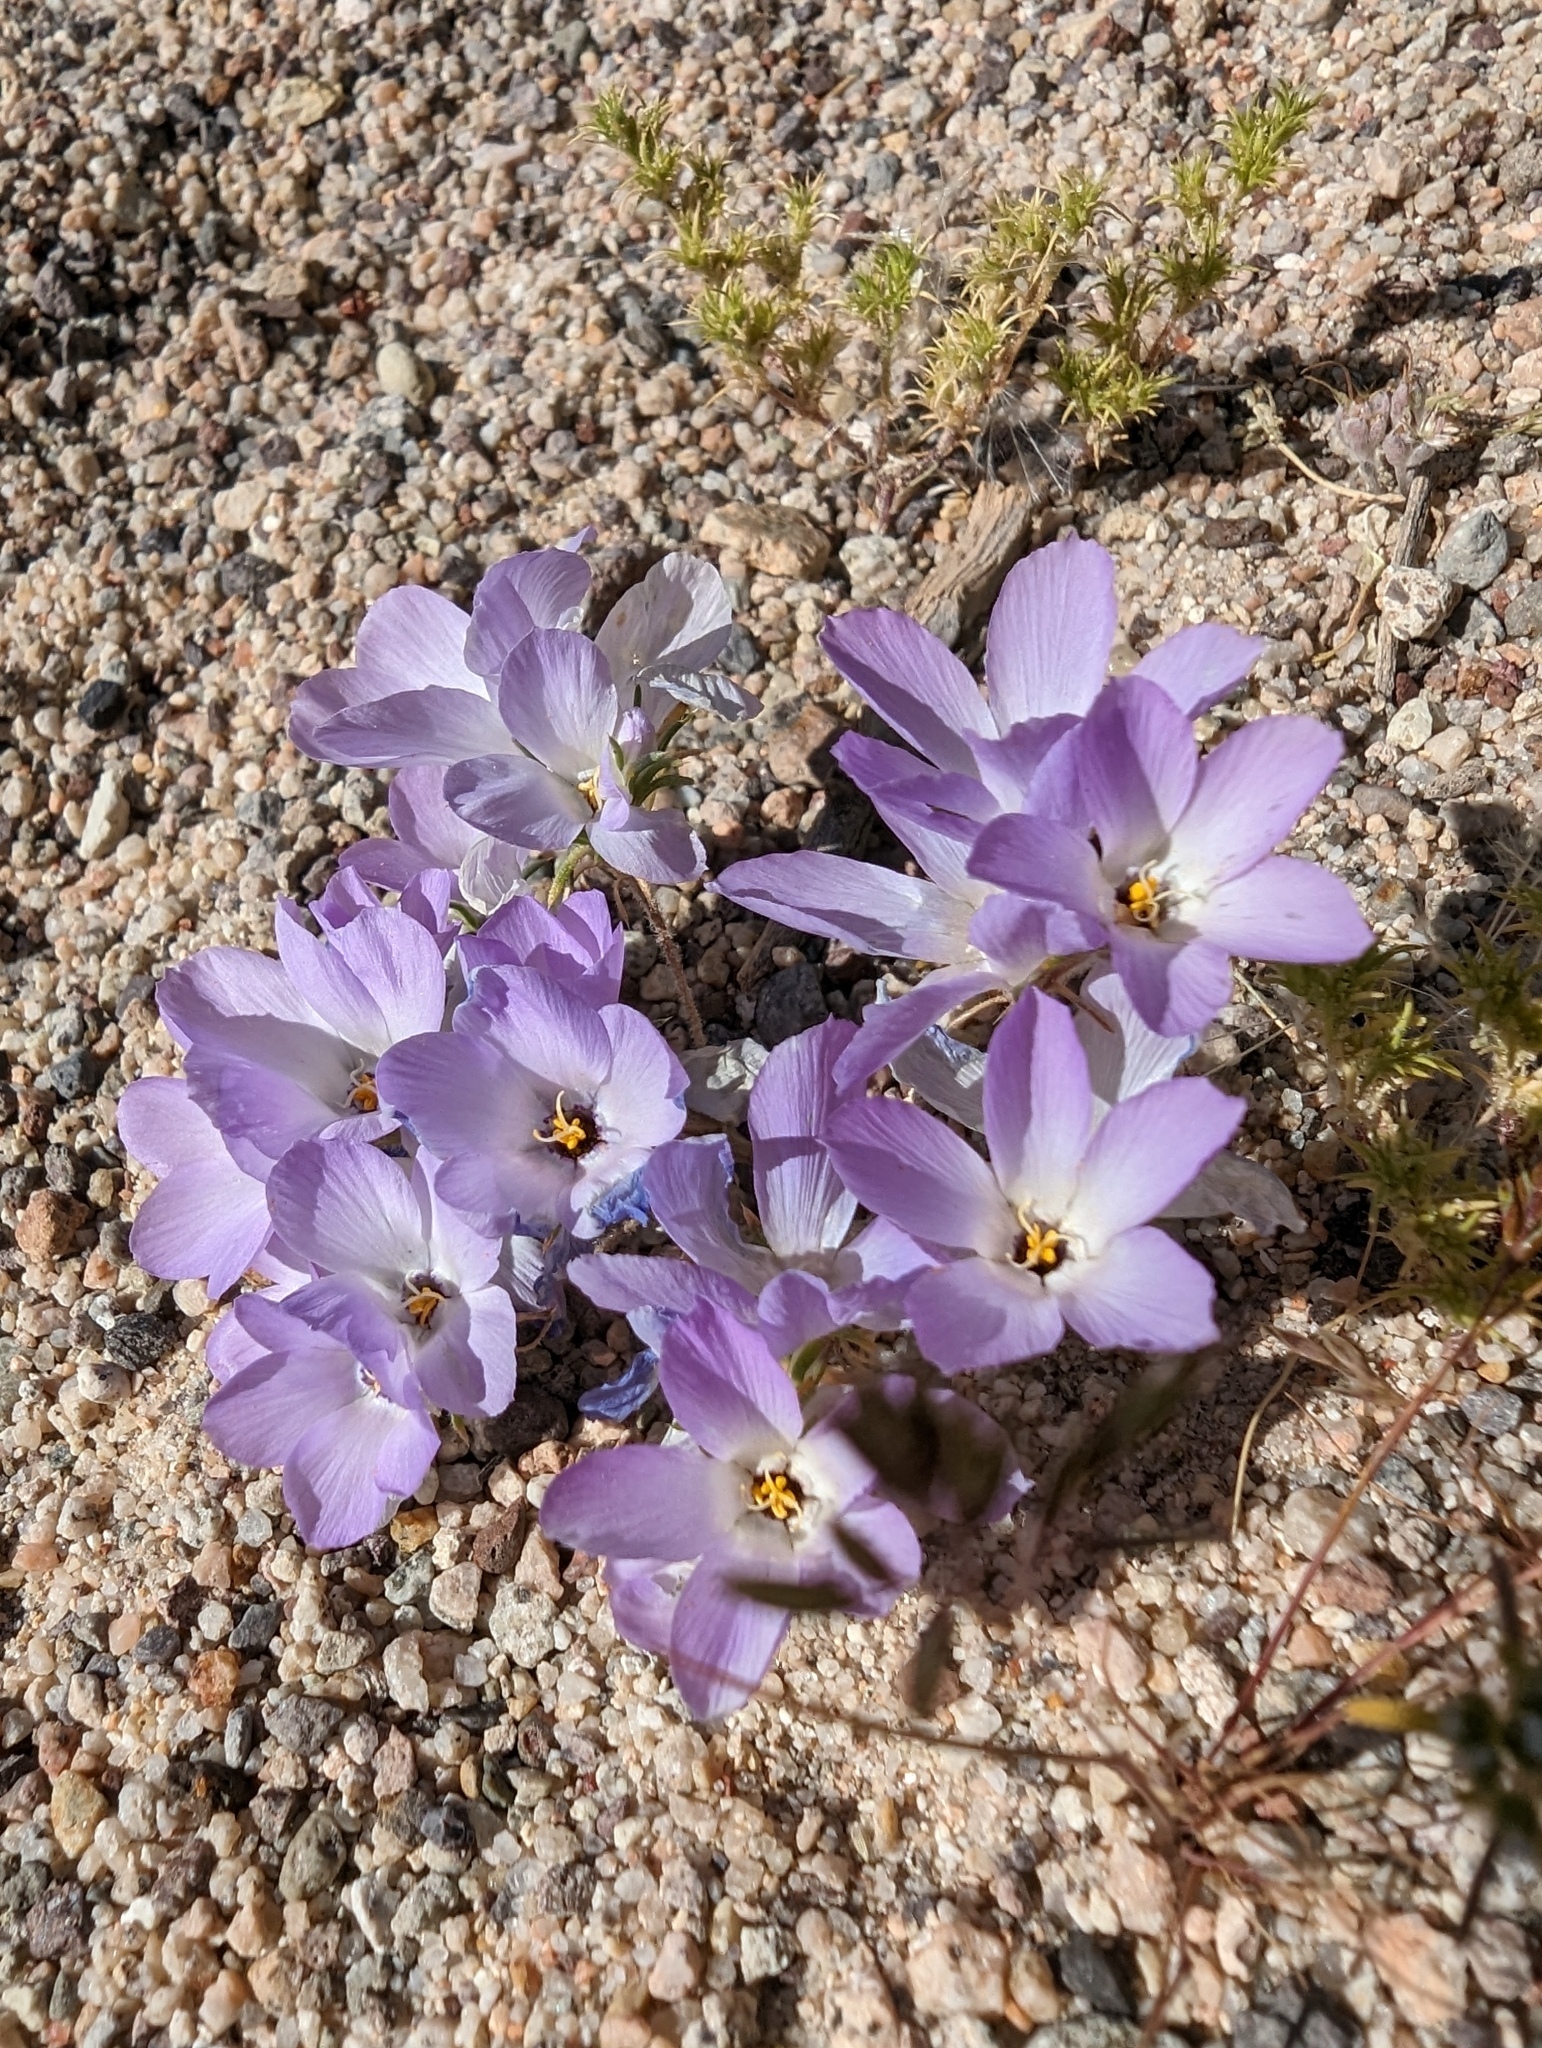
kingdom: Plantae
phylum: Tracheophyta
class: Magnoliopsida
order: Ericales
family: Polemoniaceae
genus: Linanthus
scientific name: Linanthus parryae
